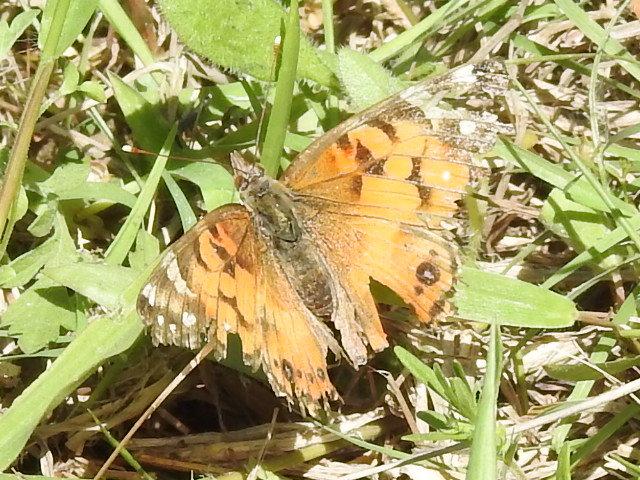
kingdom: Animalia
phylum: Arthropoda
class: Insecta
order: Lepidoptera
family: Nymphalidae
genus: Vanessa
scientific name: Vanessa virginiensis
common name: American lady
